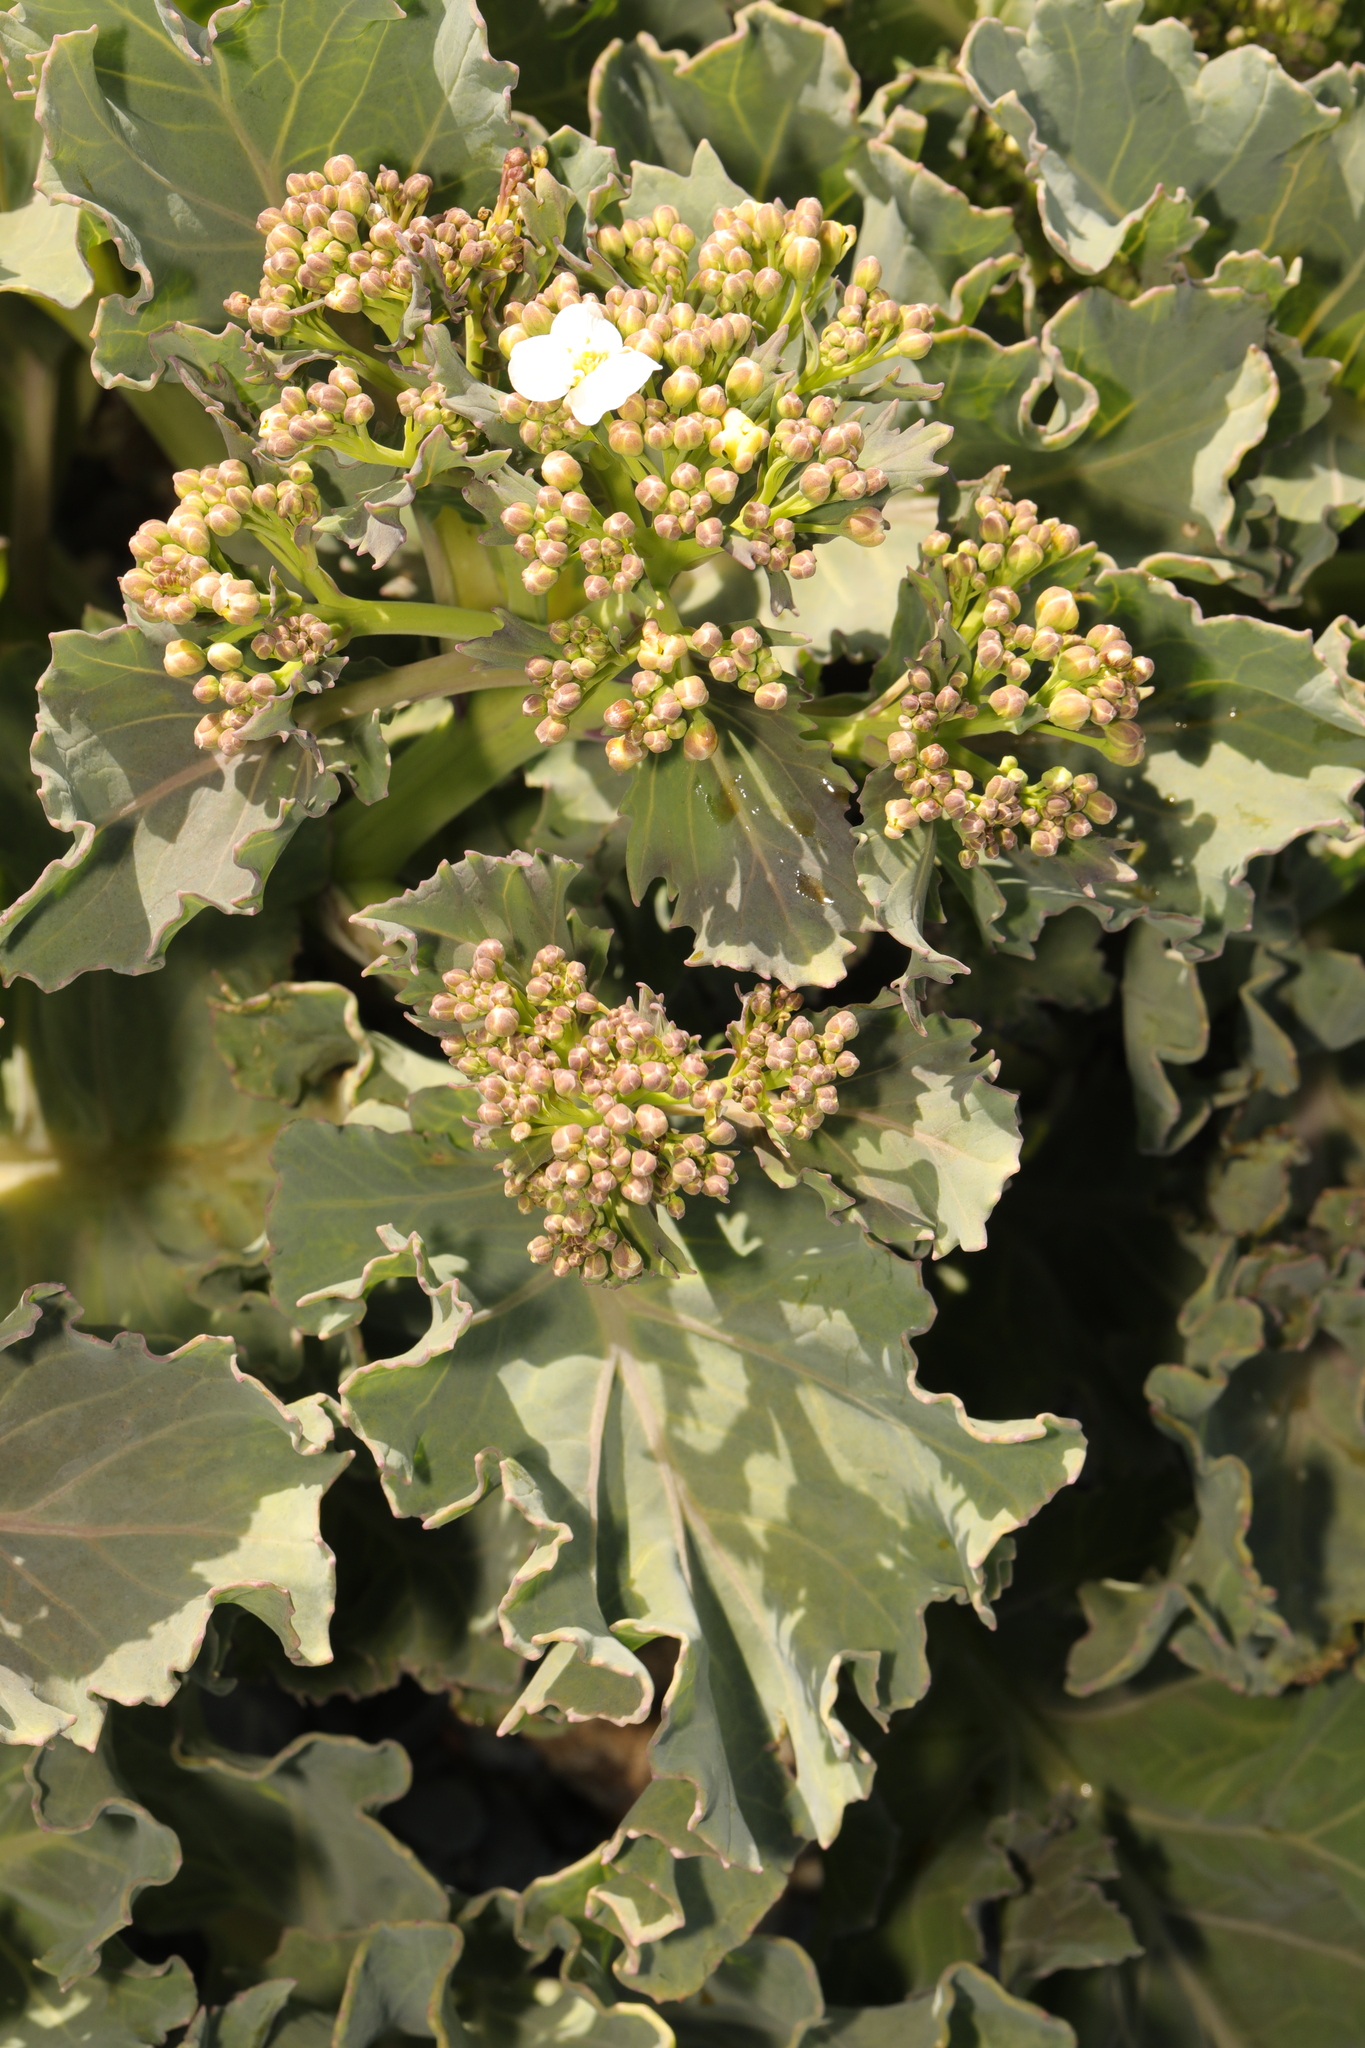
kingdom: Plantae
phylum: Tracheophyta
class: Magnoliopsida
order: Brassicales
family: Brassicaceae
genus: Crambe
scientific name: Crambe maritima
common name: Sea-kale
